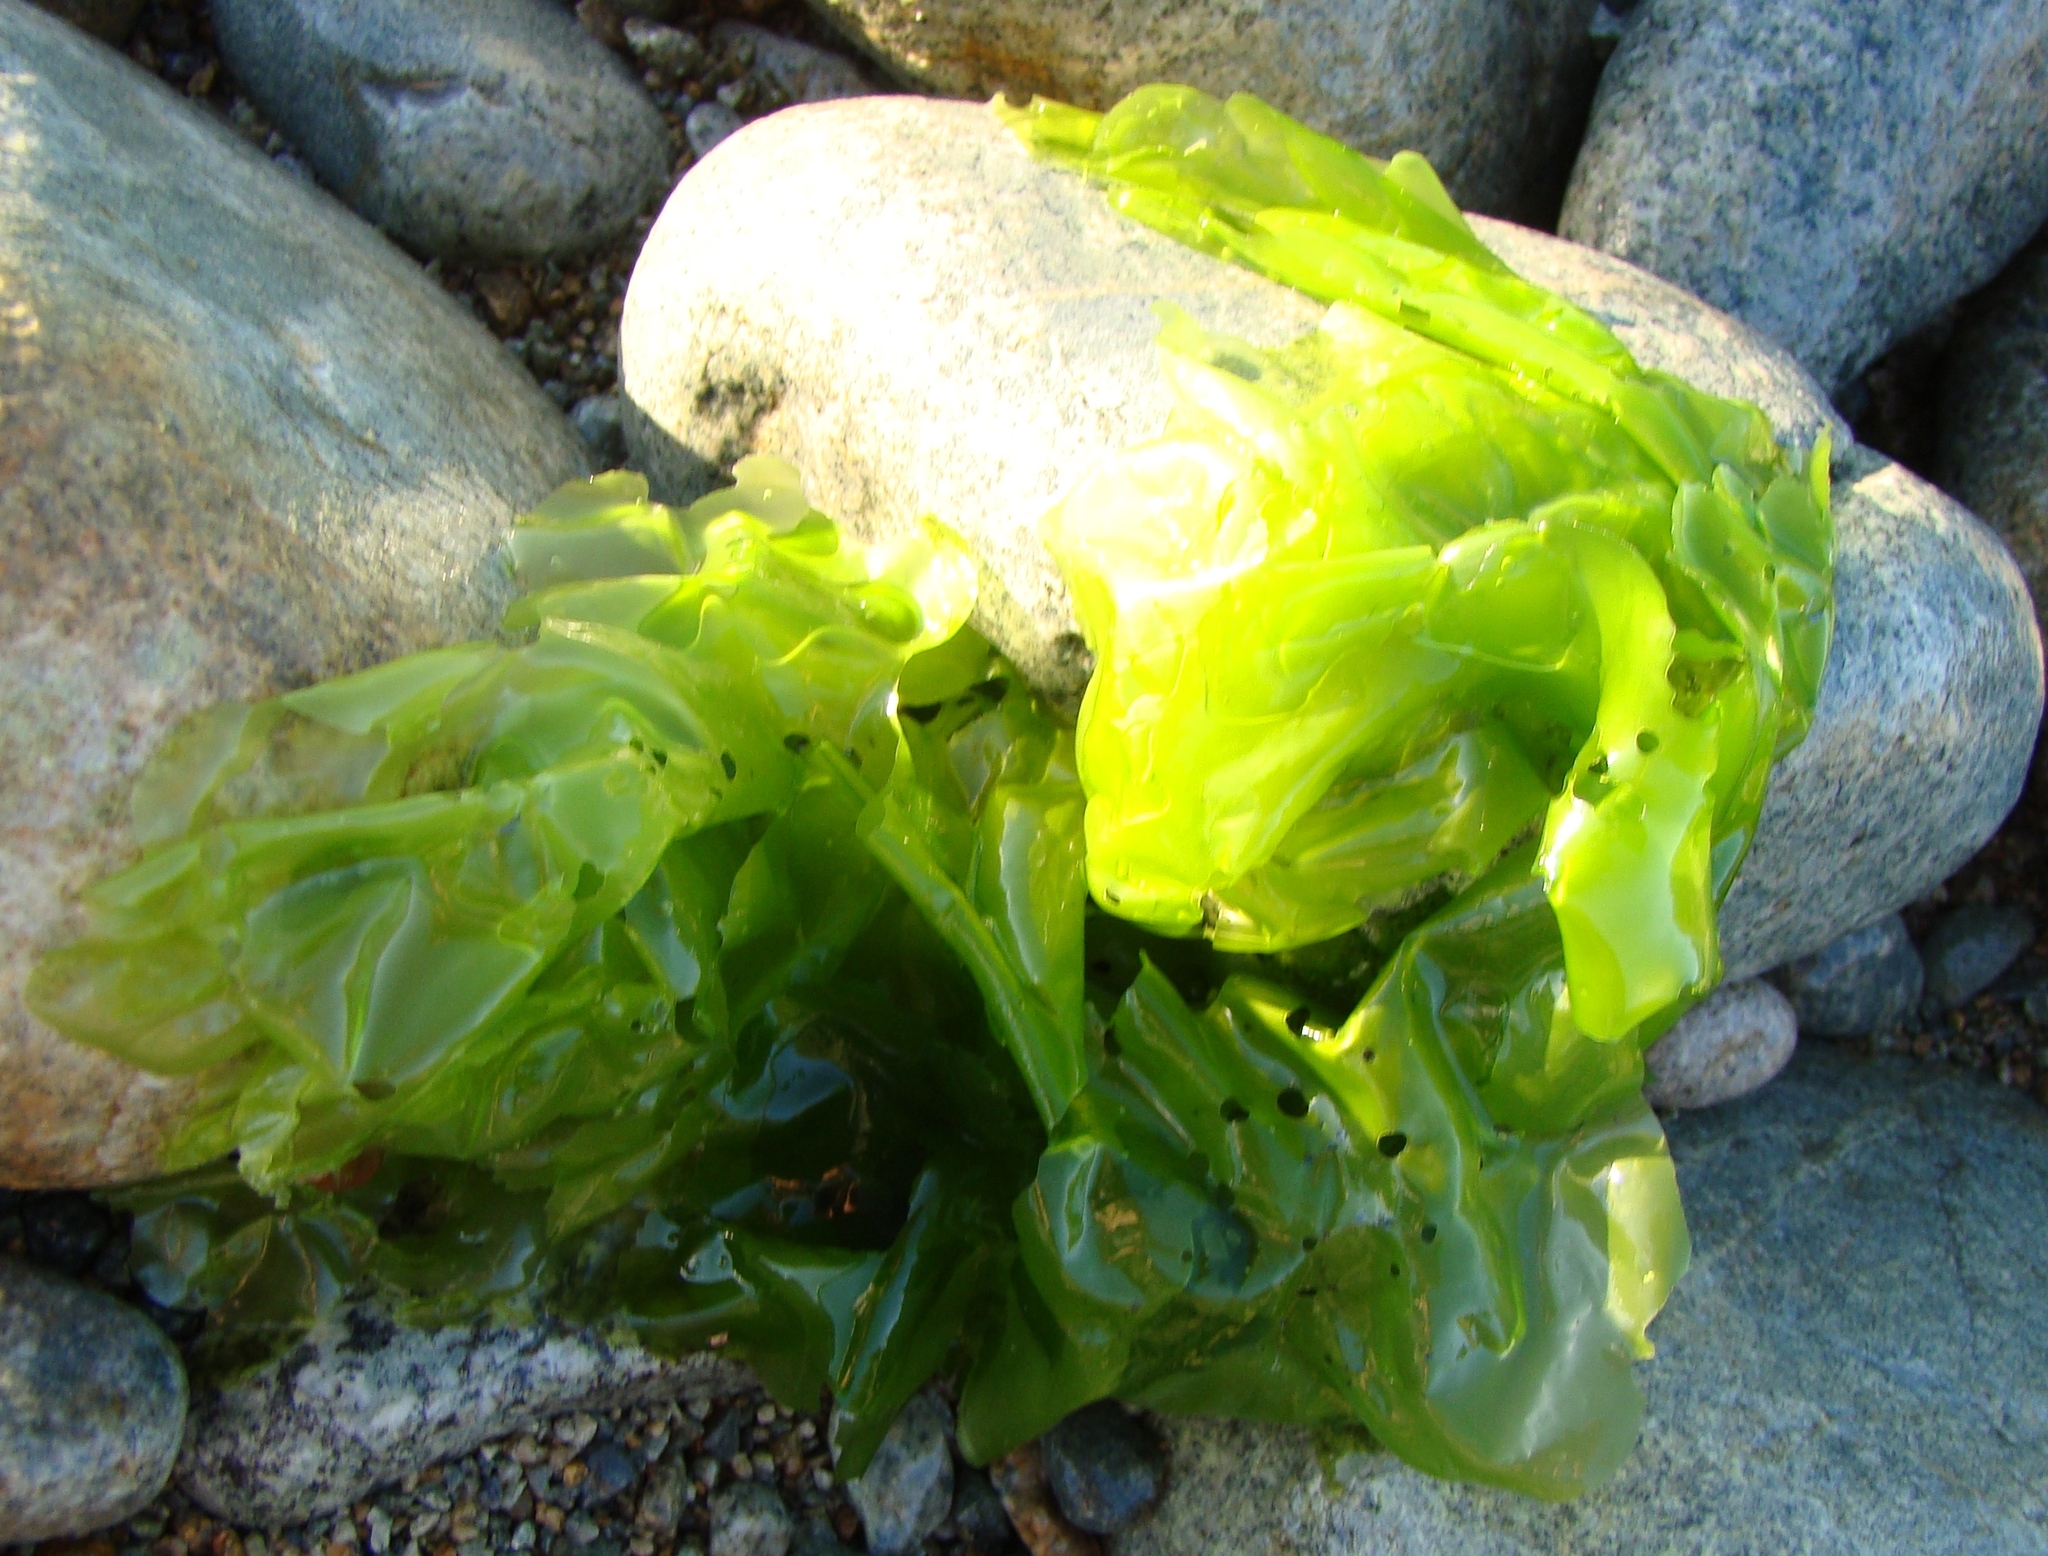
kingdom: Plantae
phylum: Chlorophyta
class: Ulvophyceae
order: Ulvales
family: Ulvaceae
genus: Ulva
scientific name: Ulva
